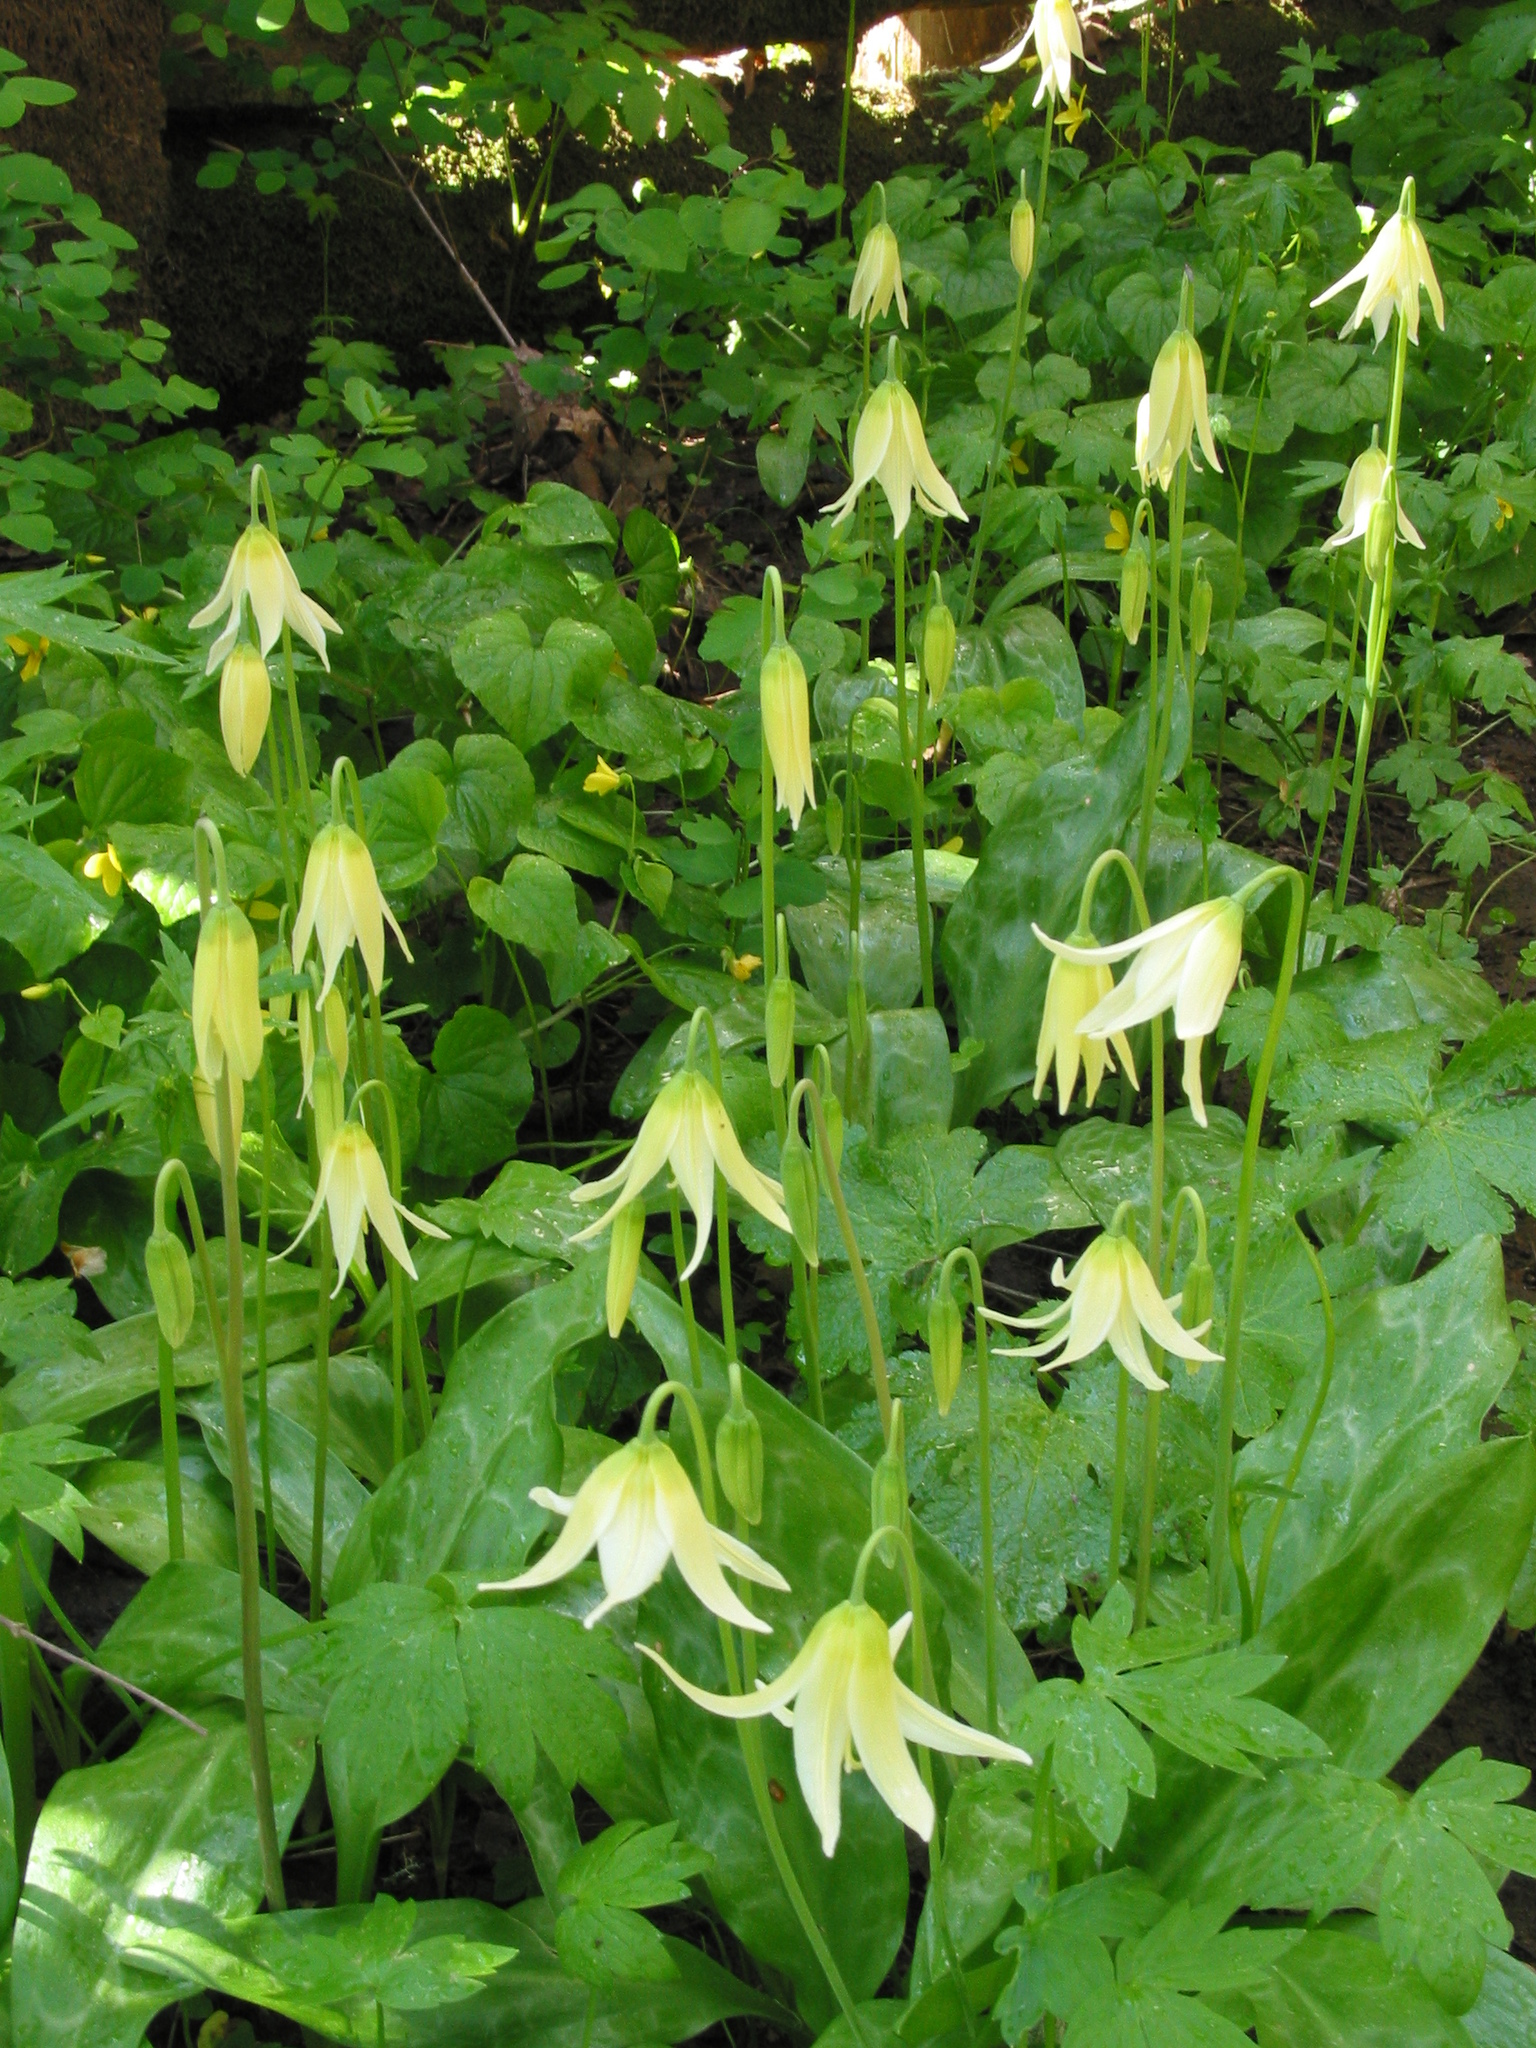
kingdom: Plantae
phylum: Tracheophyta
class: Liliopsida
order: Liliales
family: Liliaceae
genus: Erythronium
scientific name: Erythronium oregonum
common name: Giant adder's-tongue
